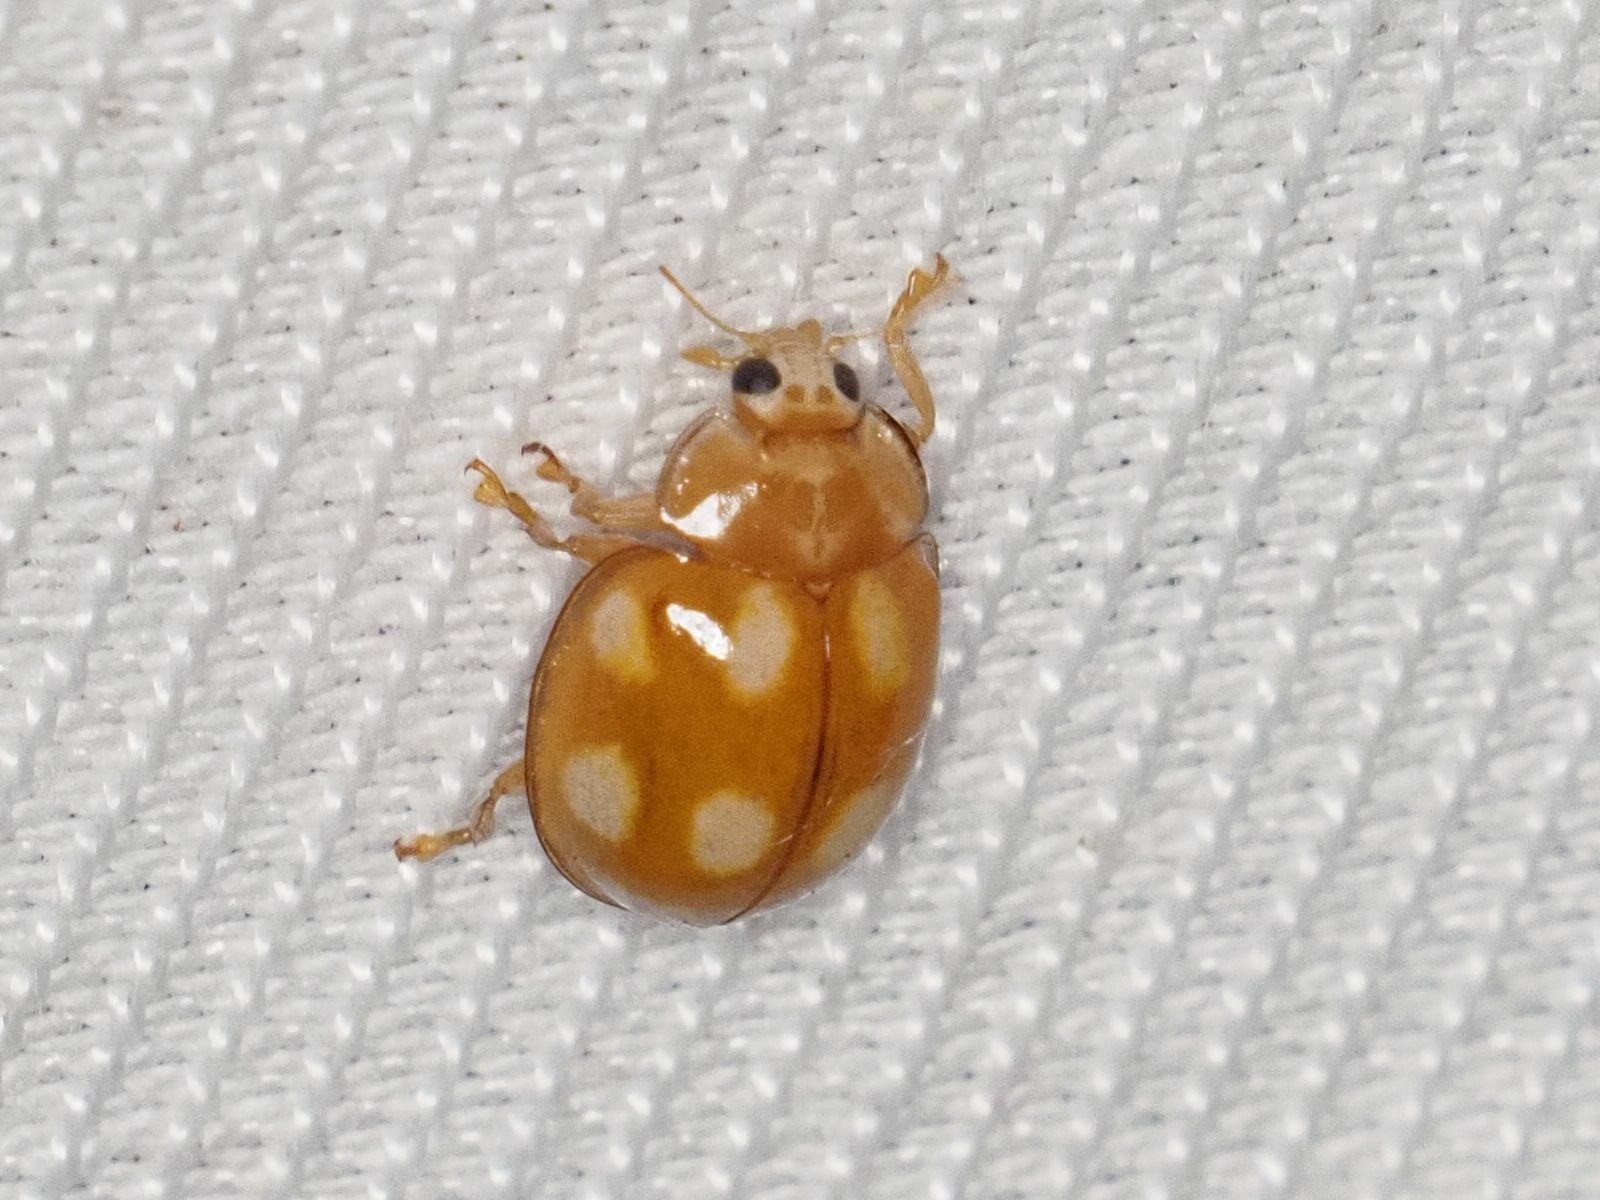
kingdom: Animalia
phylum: Arthropoda
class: Insecta
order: Coleoptera
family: Coccinellidae
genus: Calvia
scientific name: Calvia decemguttata
